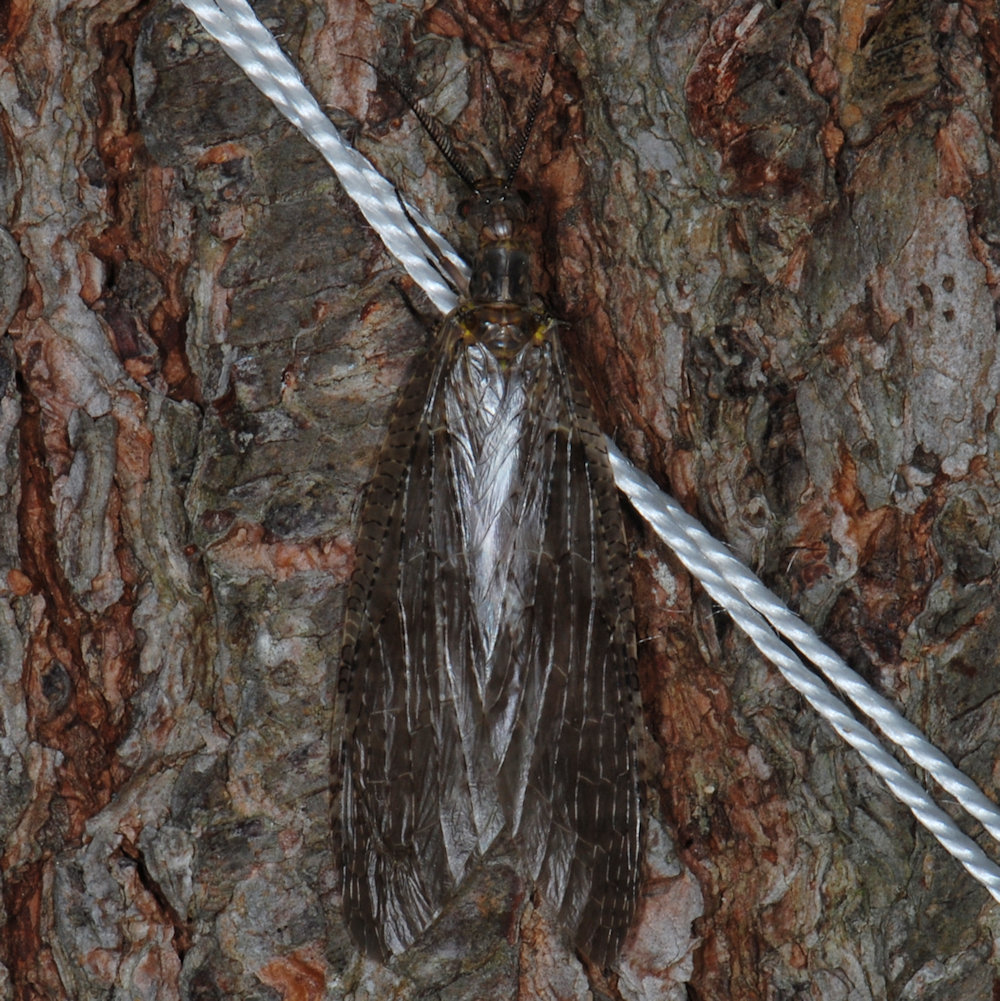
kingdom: Animalia
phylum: Arthropoda
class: Insecta
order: Megaloptera
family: Corydalidae
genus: Chauliodes
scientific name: Chauliodes pectinicornis
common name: Summer fishfly
